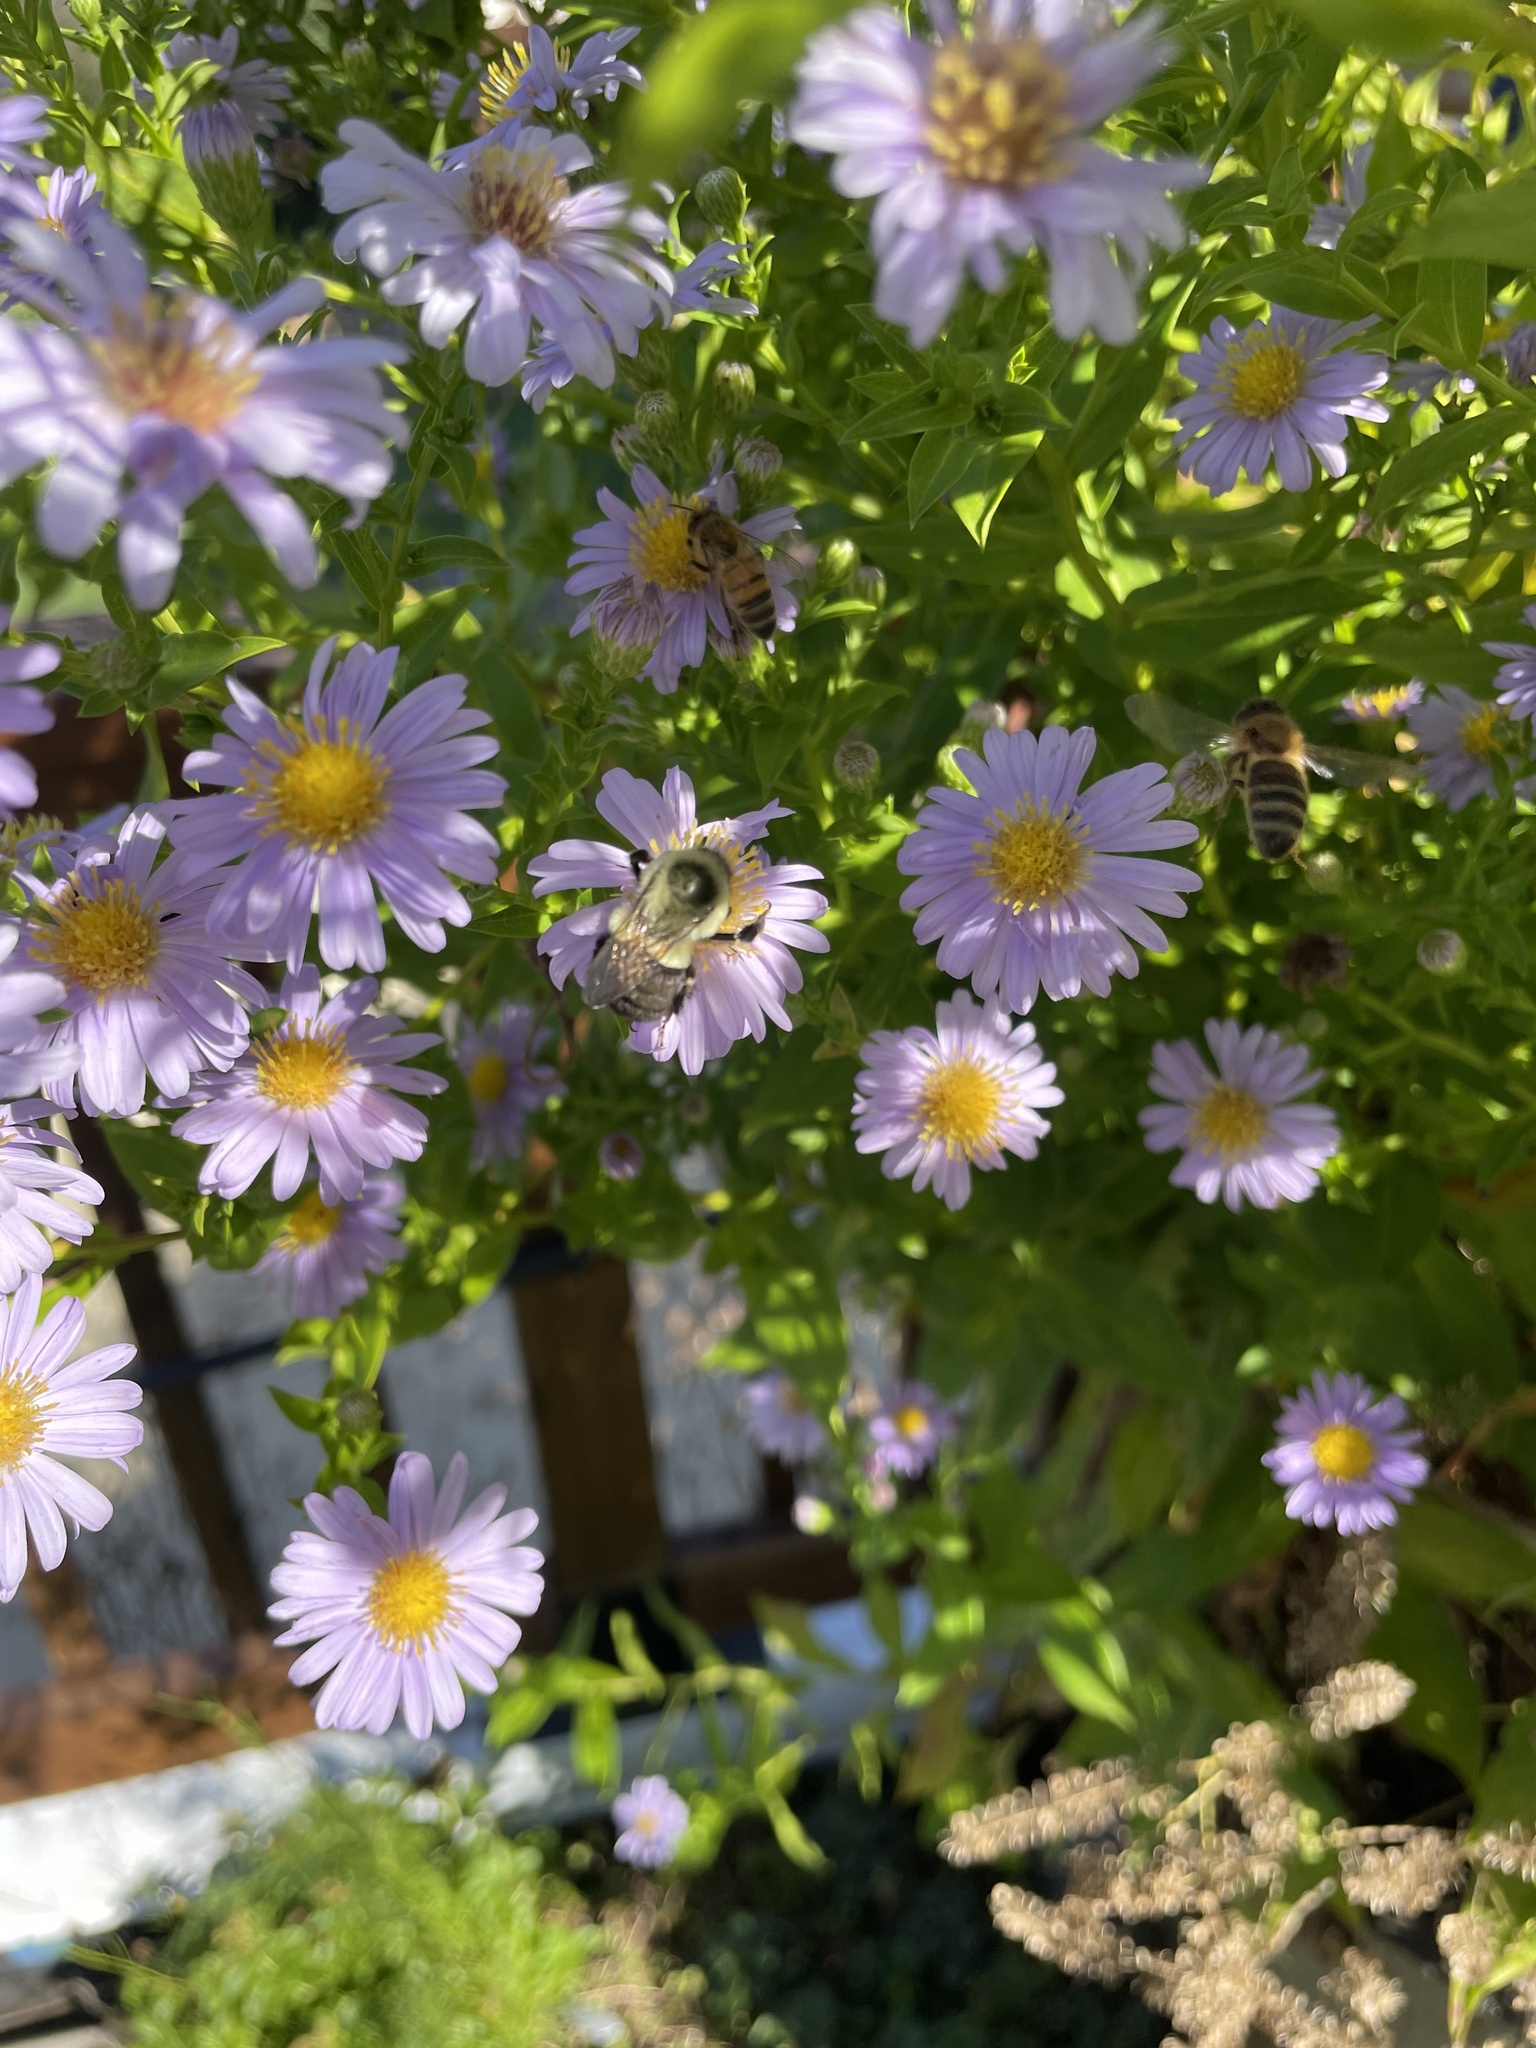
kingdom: Animalia
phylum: Arthropoda
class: Insecta
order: Hymenoptera
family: Apidae
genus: Bombus
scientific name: Bombus impatiens
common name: Common eastern bumble bee
